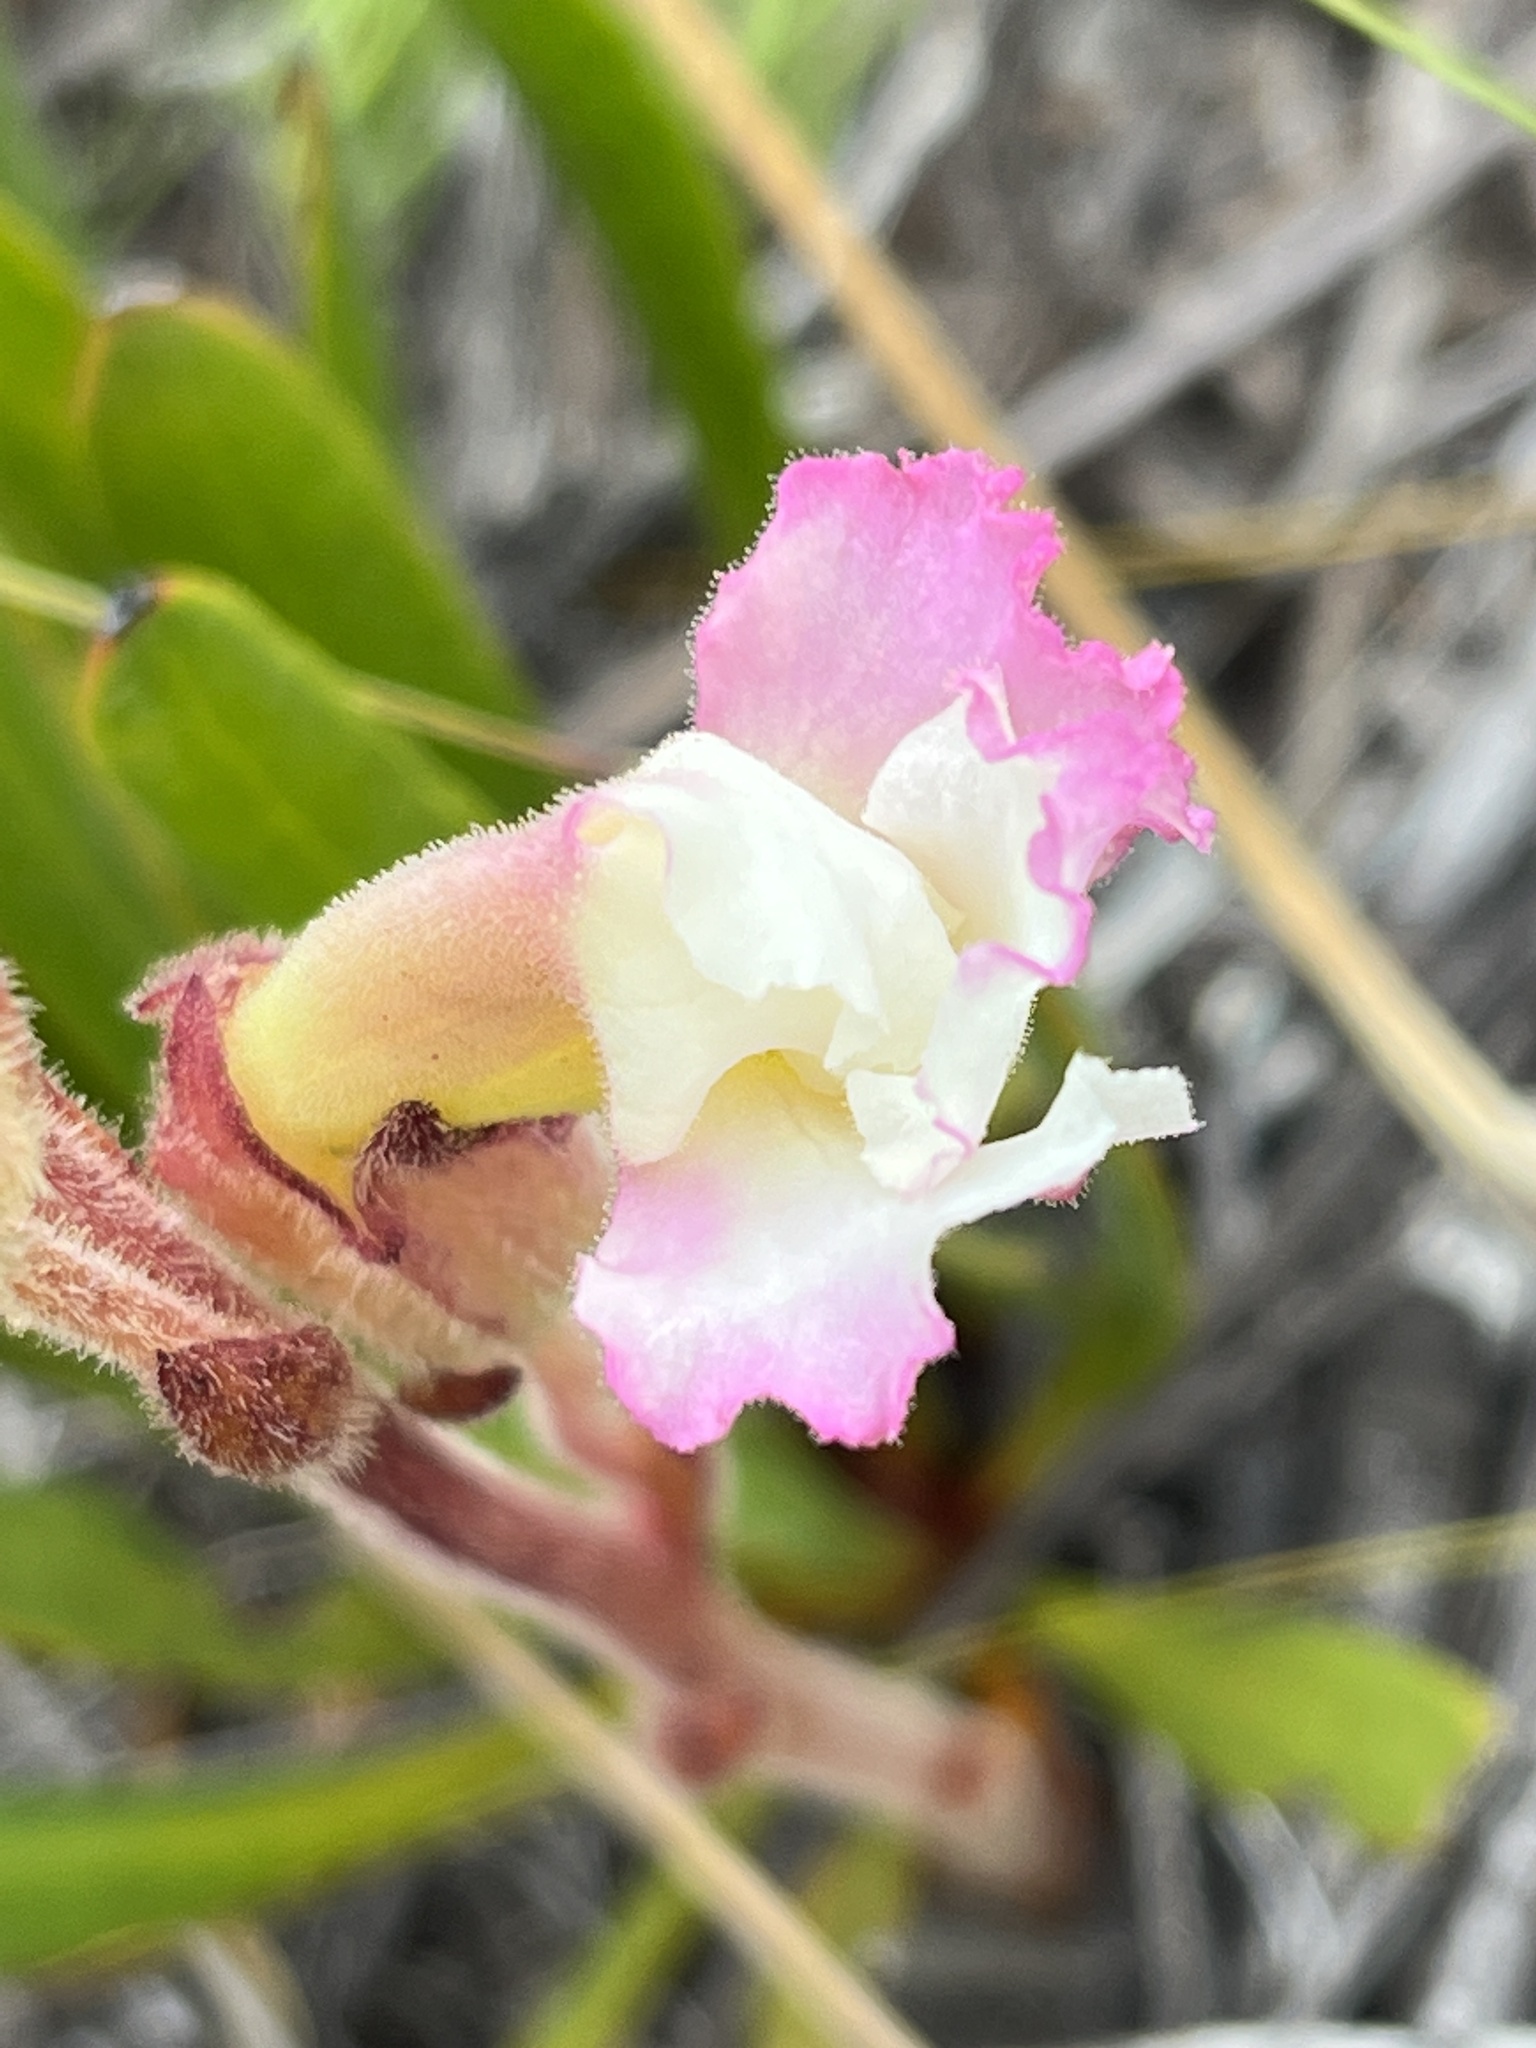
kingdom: Plantae
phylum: Tracheophyta
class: Magnoliopsida
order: Lamiales
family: Orobanchaceae
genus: Harveya
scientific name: Harveya capensis
